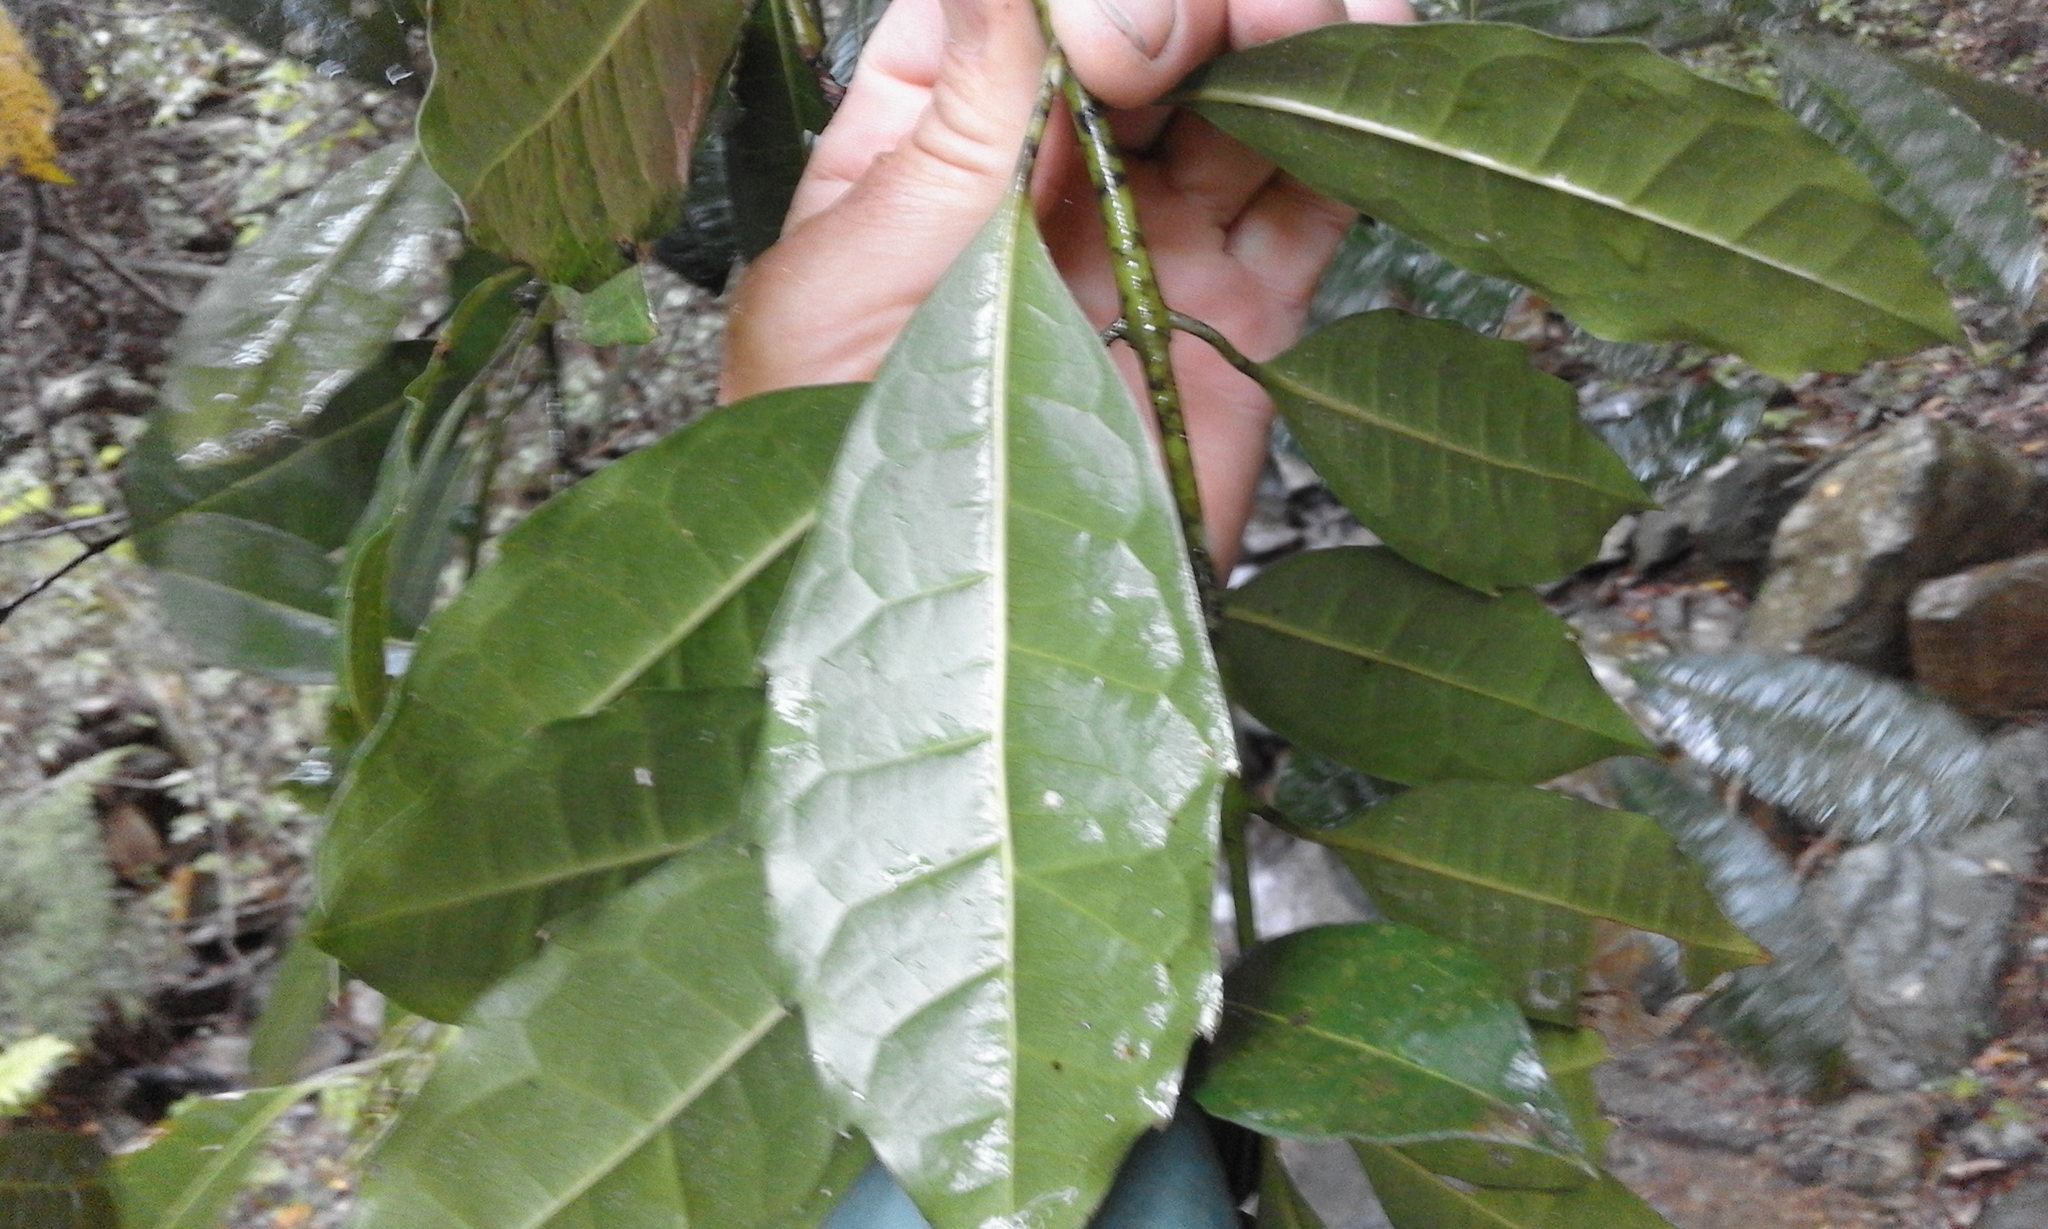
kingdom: Plantae
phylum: Tracheophyta
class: Magnoliopsida
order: Laurales
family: Monimiaceae
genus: Xymalos
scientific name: Xymalos monospora
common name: Lemonwood
